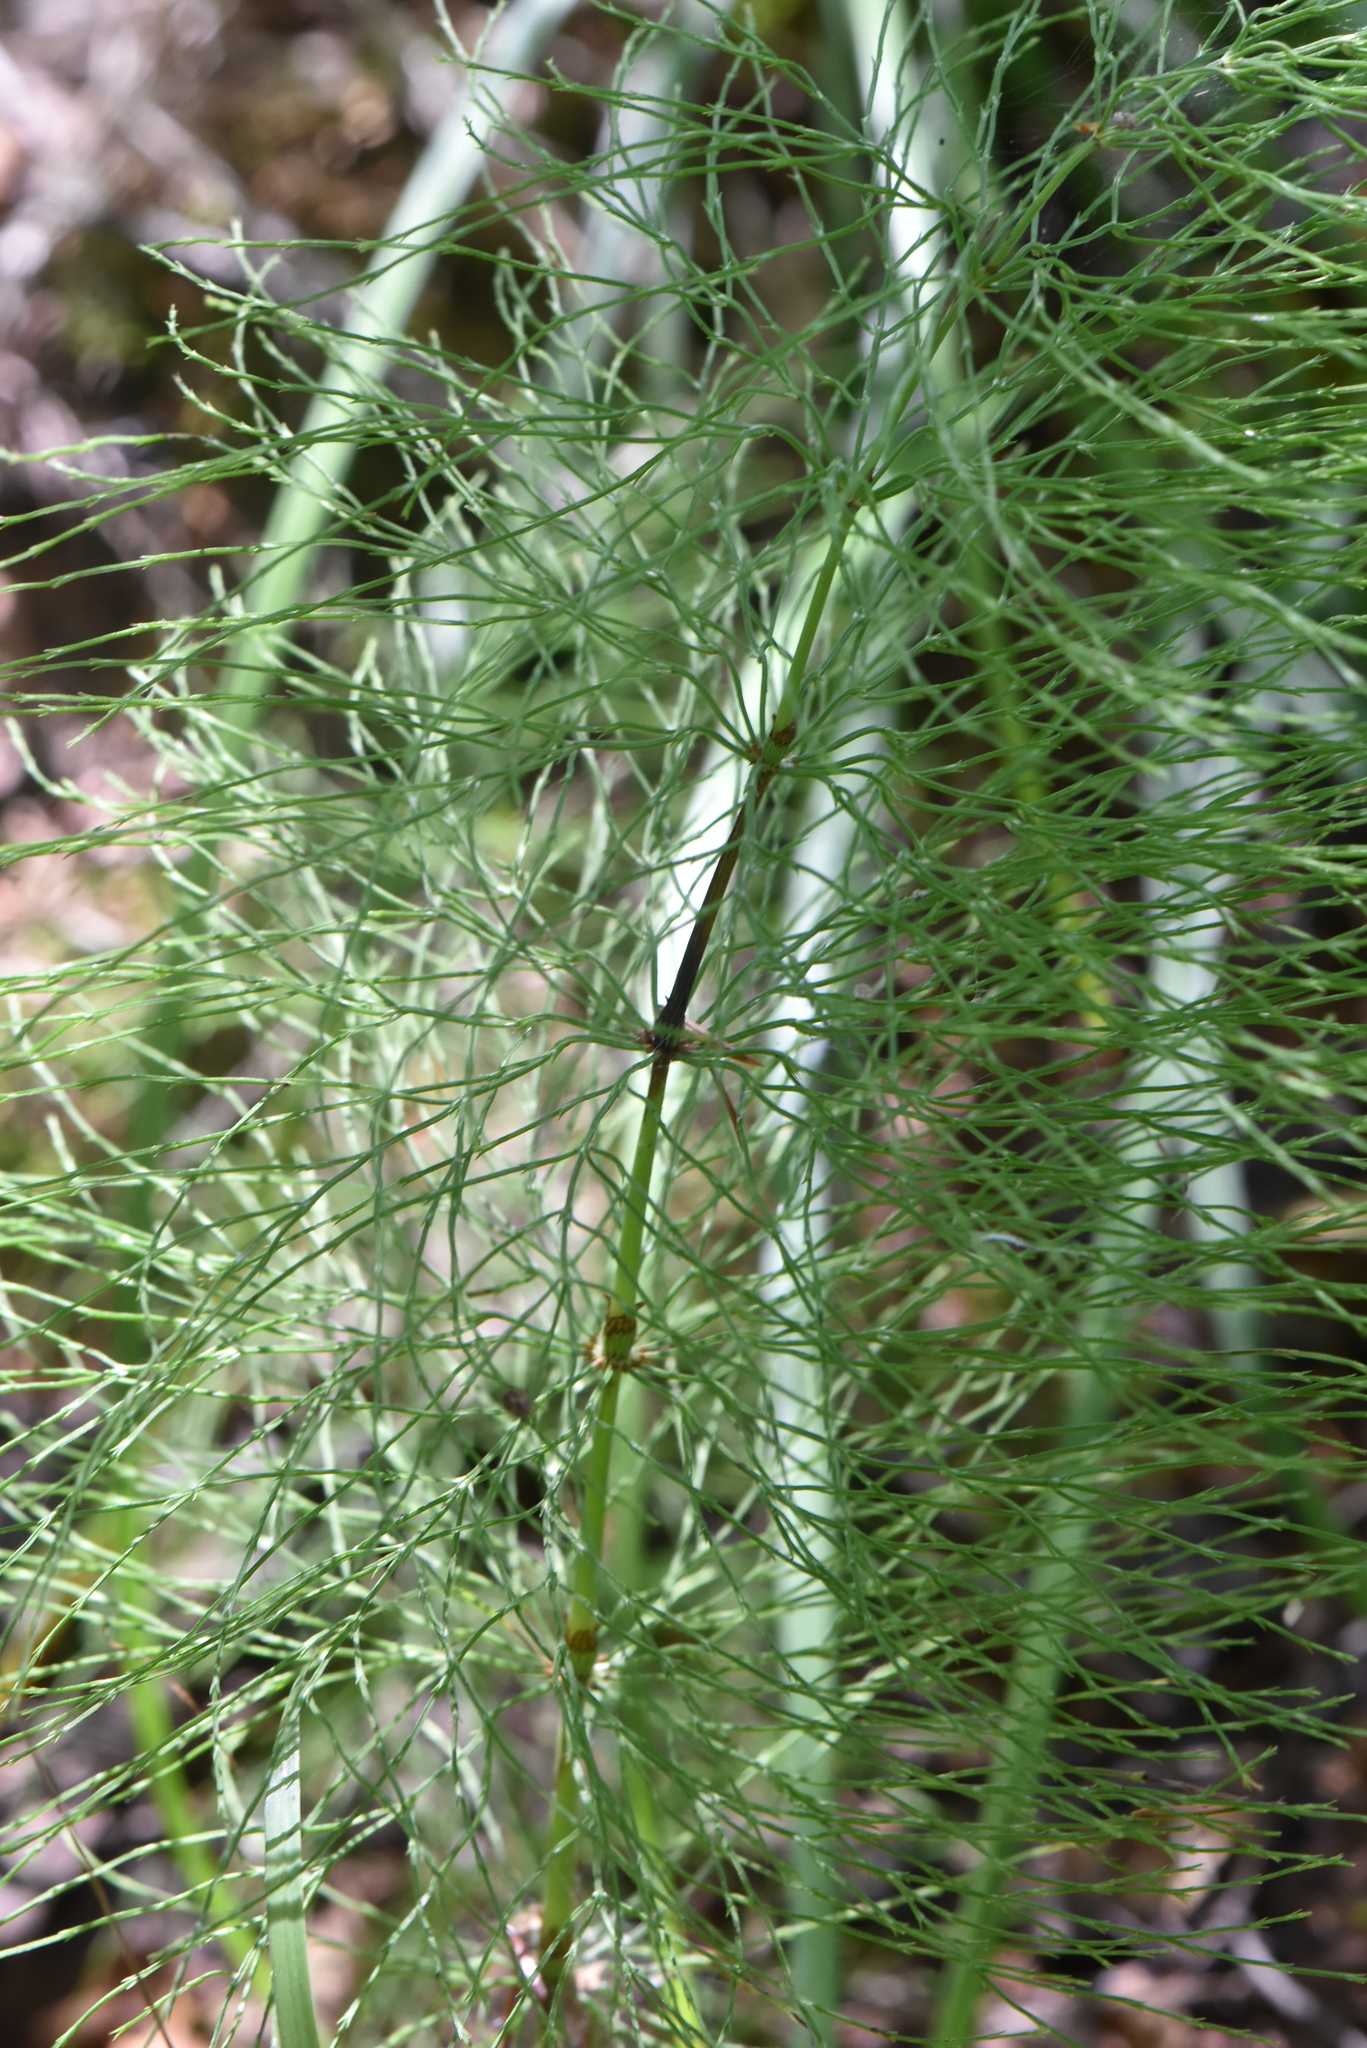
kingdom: Plantae
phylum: Tracheophyta
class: Polypodiopsida
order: Equisetales
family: Equisetaceae
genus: Equisetum
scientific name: Equisetum sylvaticum
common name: Wood horsetail
